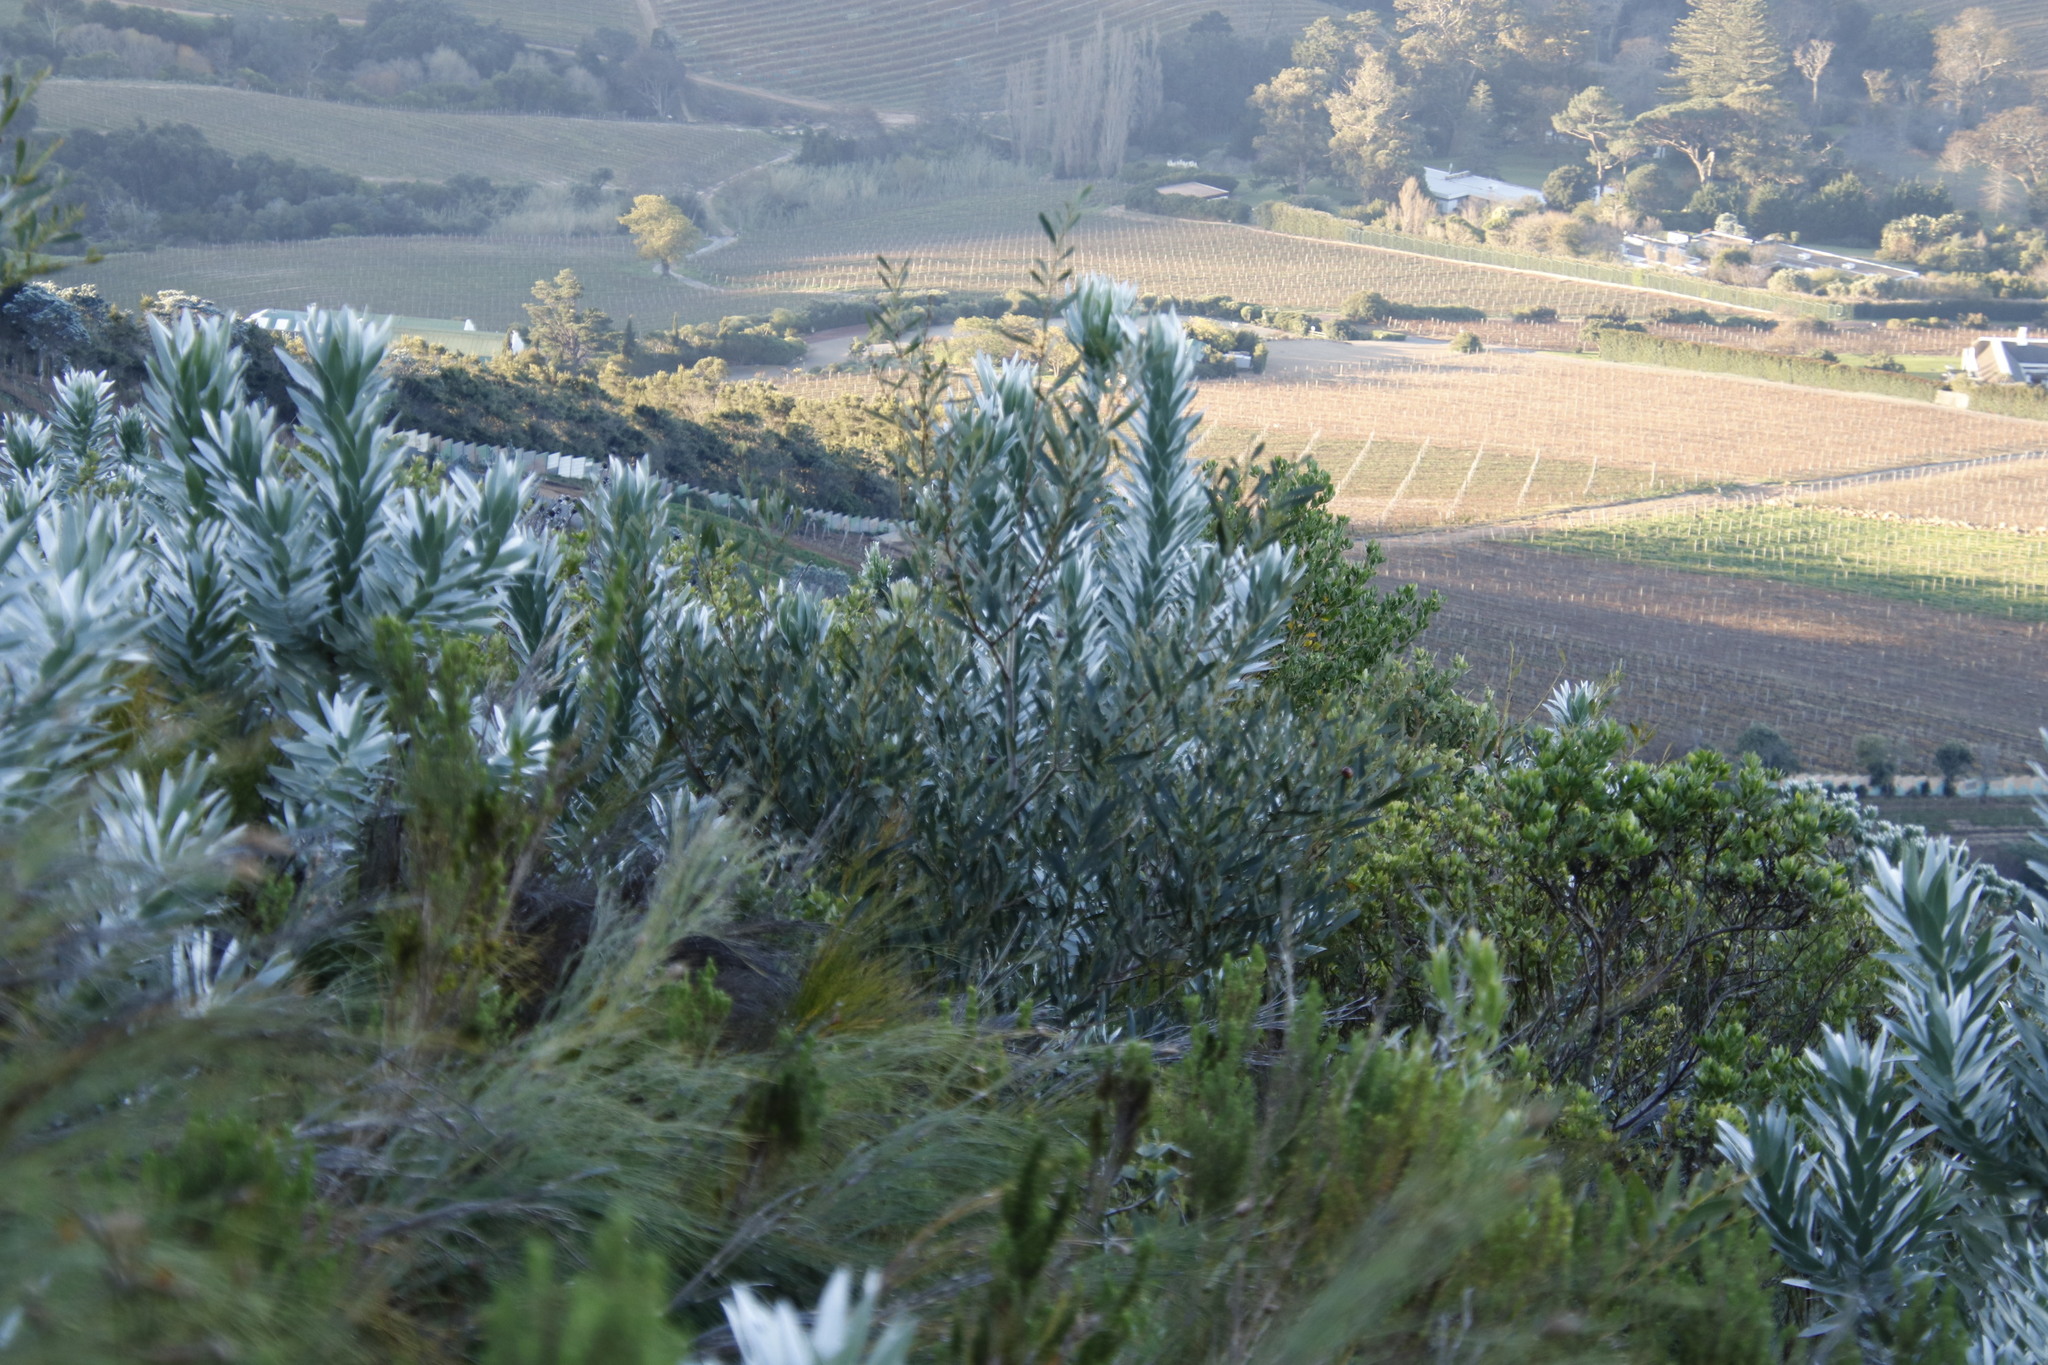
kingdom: Plantae
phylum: Tracheophyta
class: Magnoliopsida
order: Proteales
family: Proteaceae
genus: Leucadendron
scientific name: Leucadendron argenteum
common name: Cape silver tree
